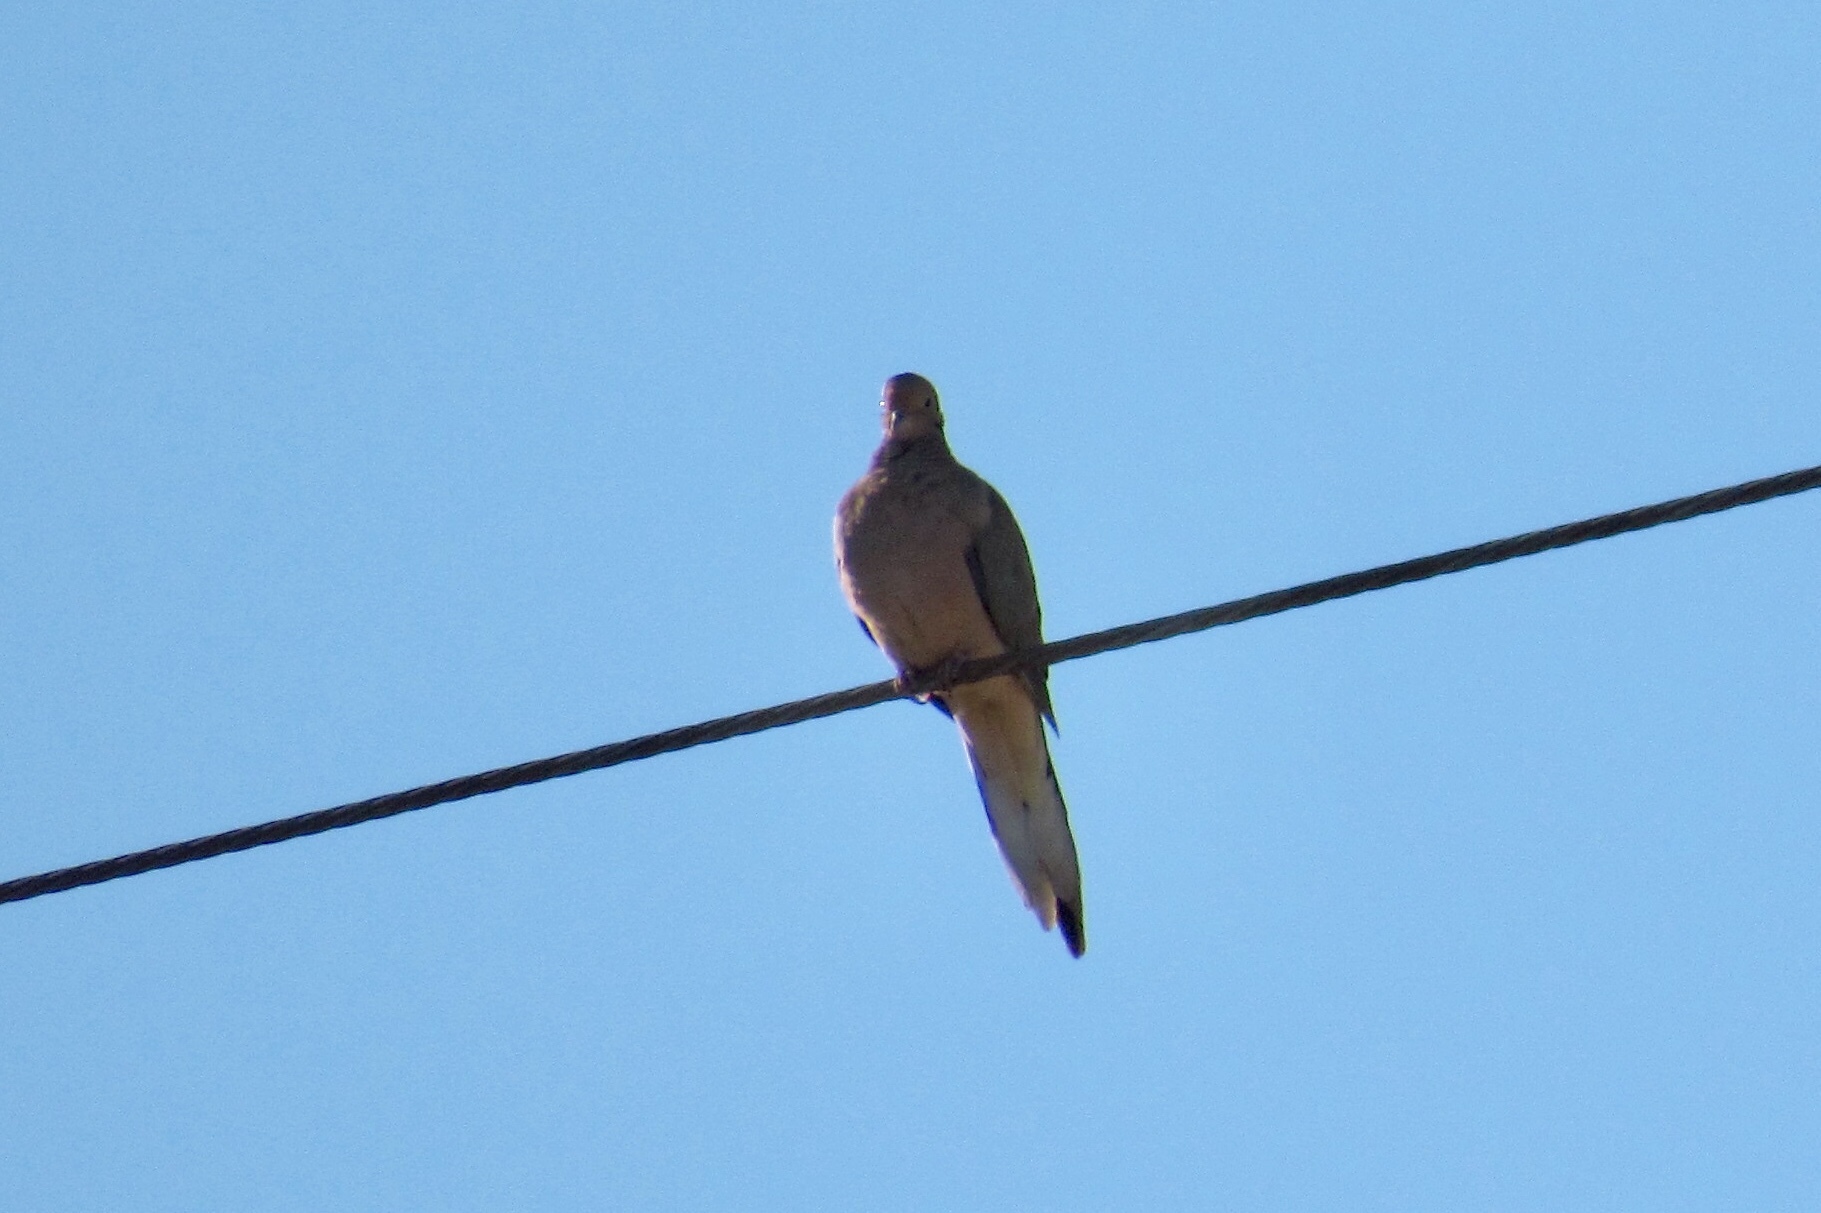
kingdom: Animalia
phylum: Chordata
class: Aves
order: Columbiformes
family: Columbidae
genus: Zenaida
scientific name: Zenaida macroura
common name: Mourning dove
